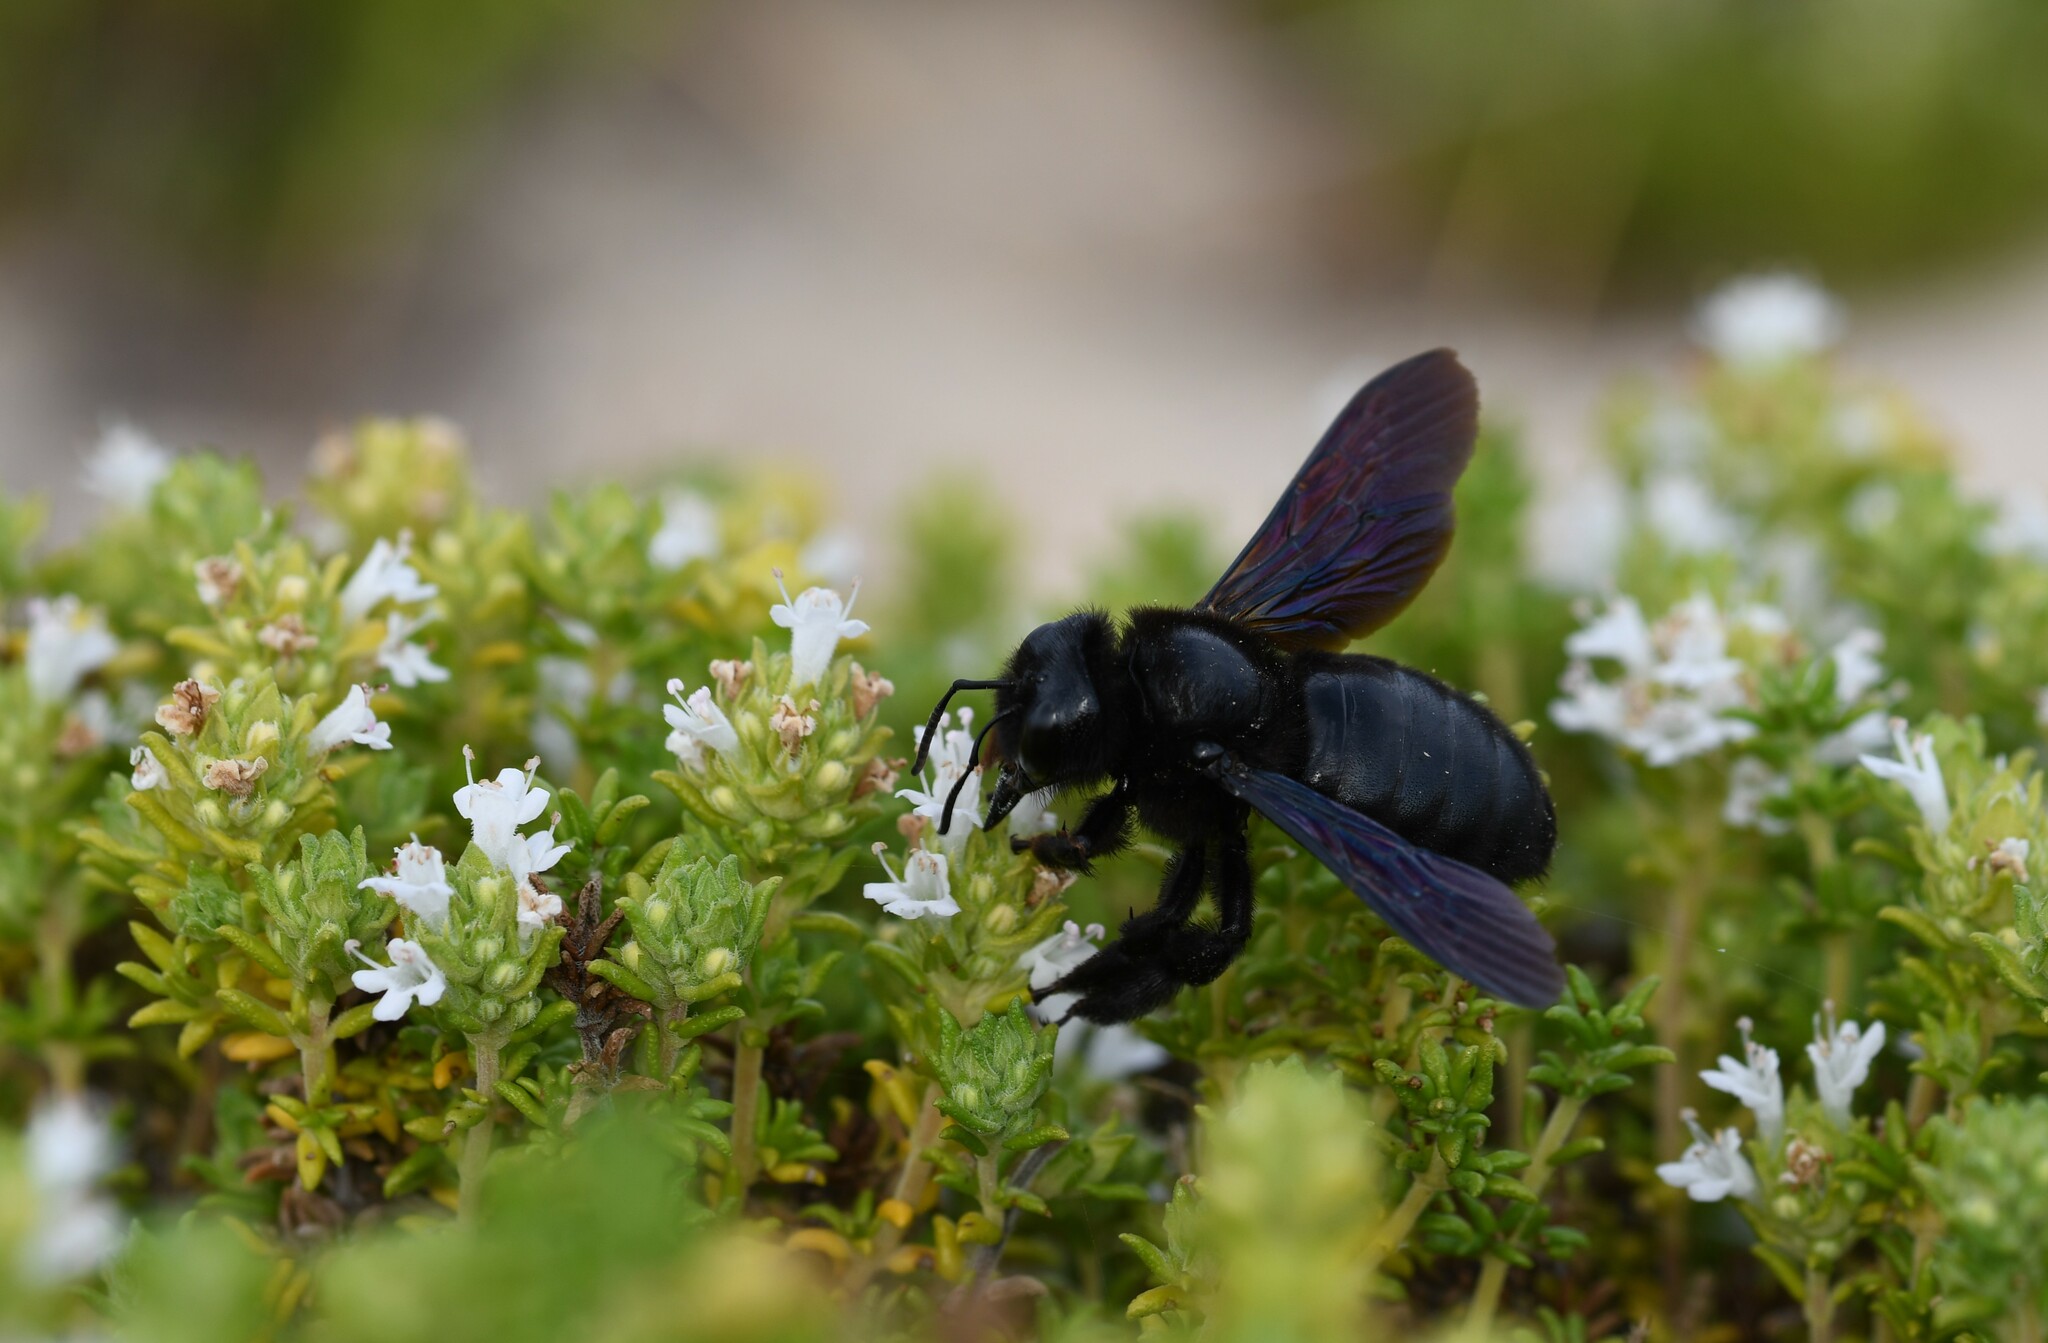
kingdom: Animalia
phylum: Arthropoda
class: Insecta
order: Hymenoptera
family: Apidae
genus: Xylocopa
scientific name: Xylocopa violacea
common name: Violet carpenter bee
